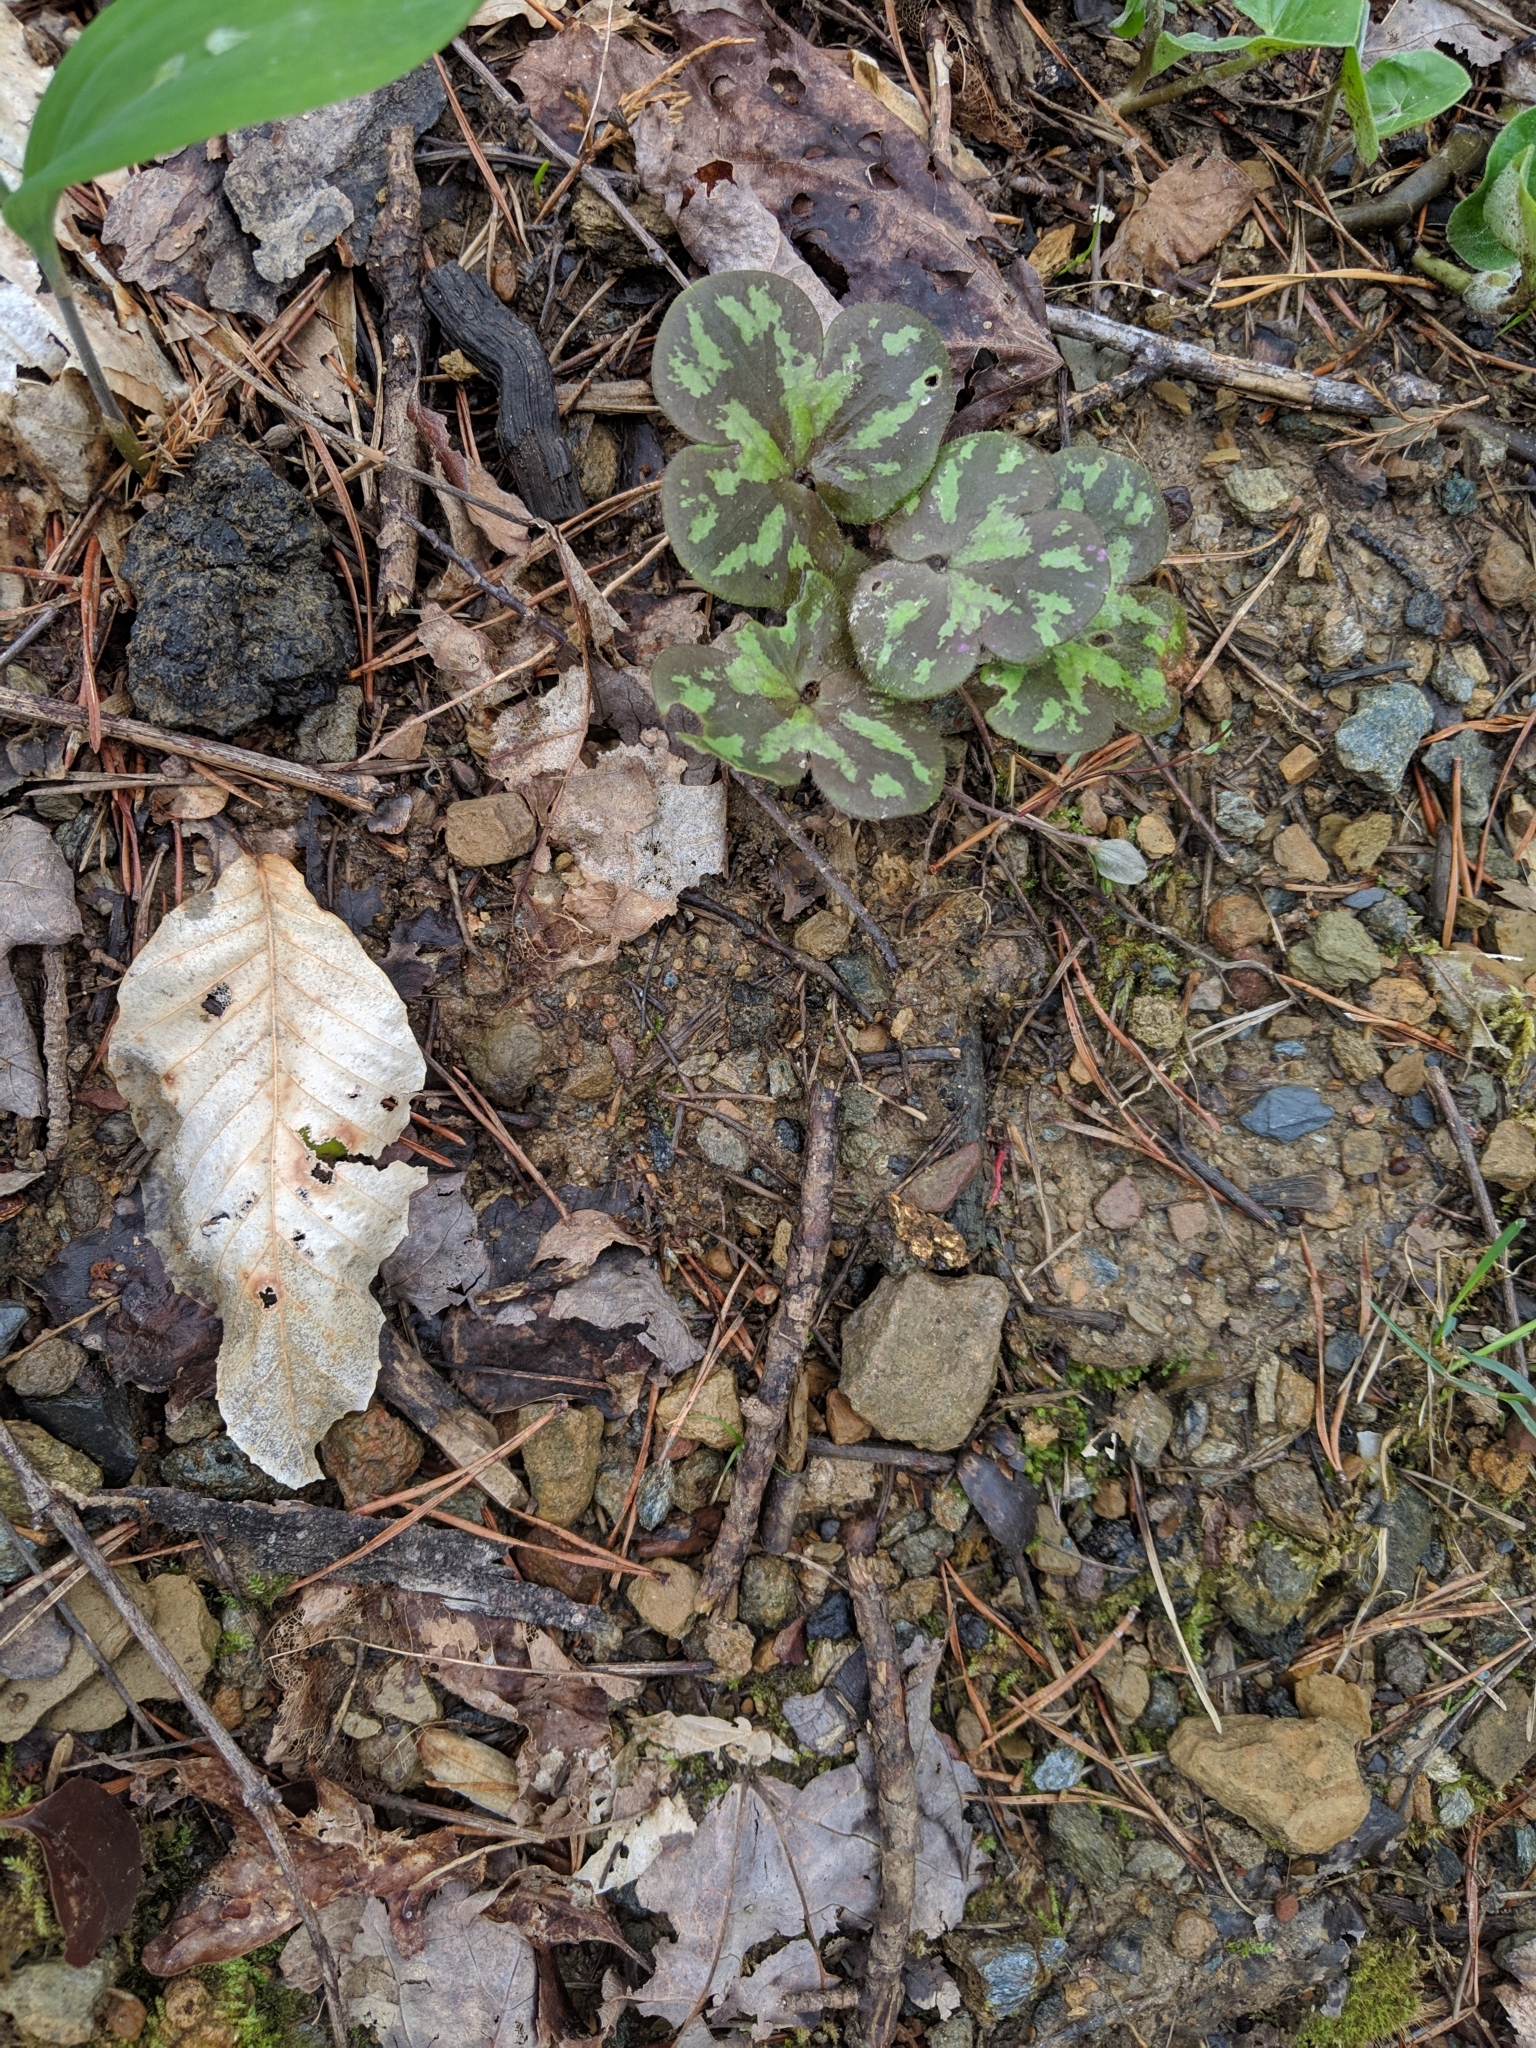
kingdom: Plantae
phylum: Tracheophyta
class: Magnoliopsida
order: Ranunculales
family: Ranunculaceae
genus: Hepatica
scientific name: Hepatica americana
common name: American hepatica
